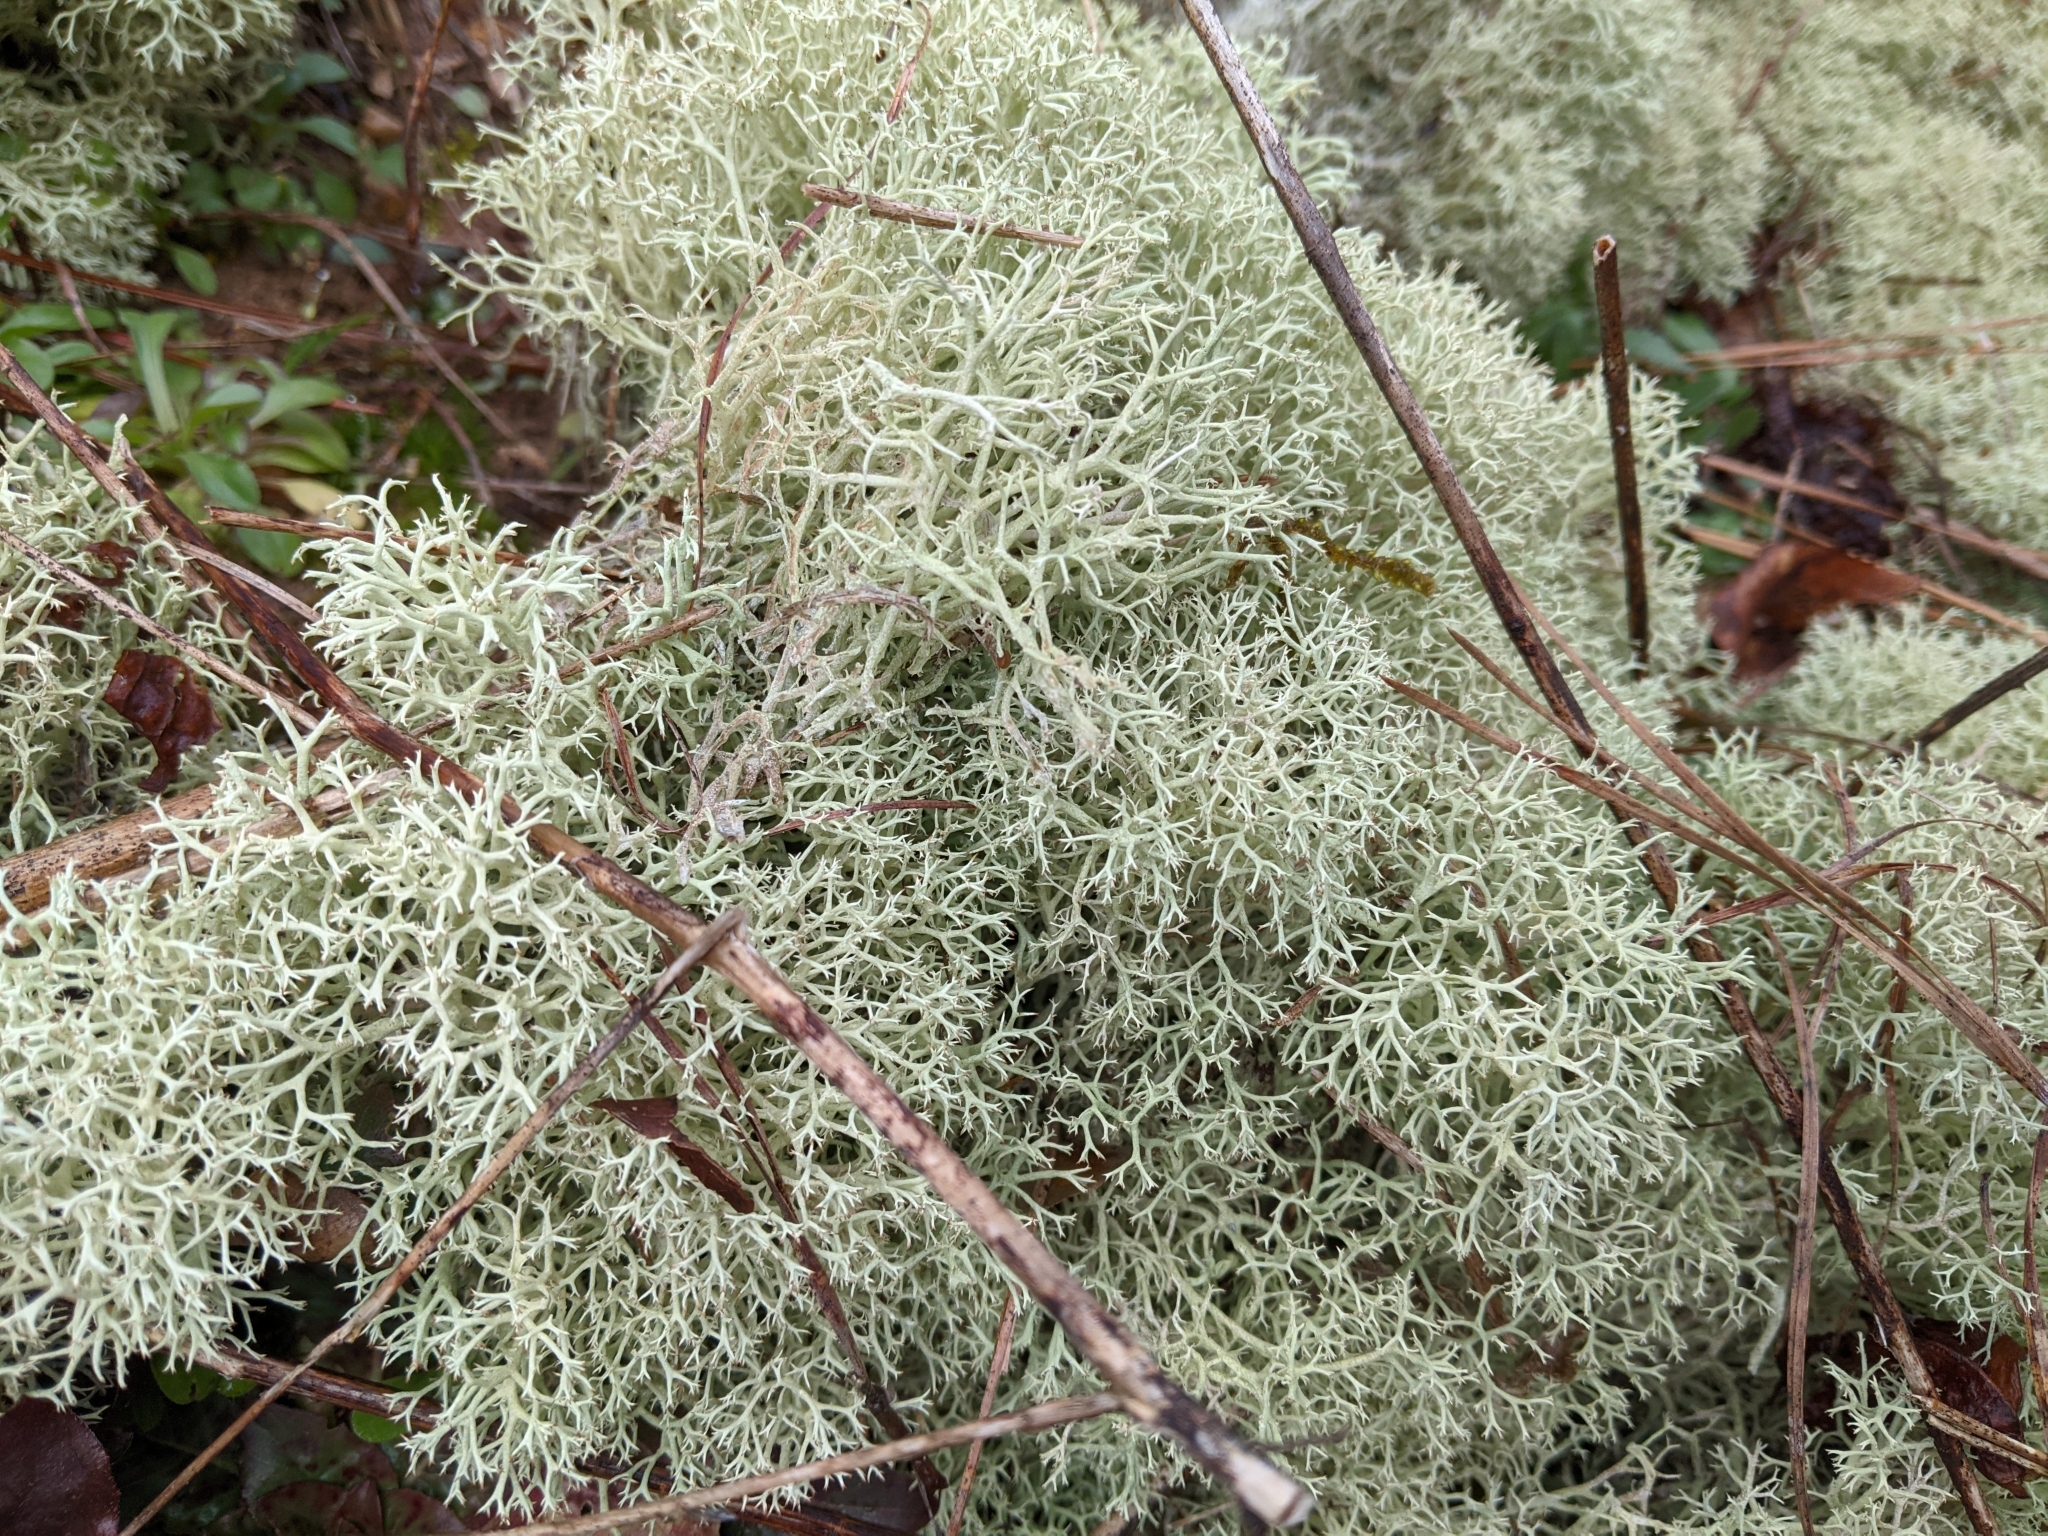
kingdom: Fungi
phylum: Ascomycota
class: Lecanoromycetes
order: Lecanorales
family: Cladoniaceae
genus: Cladonia
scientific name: Cladonia subtenuis
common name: Dixie reindeer lichen
